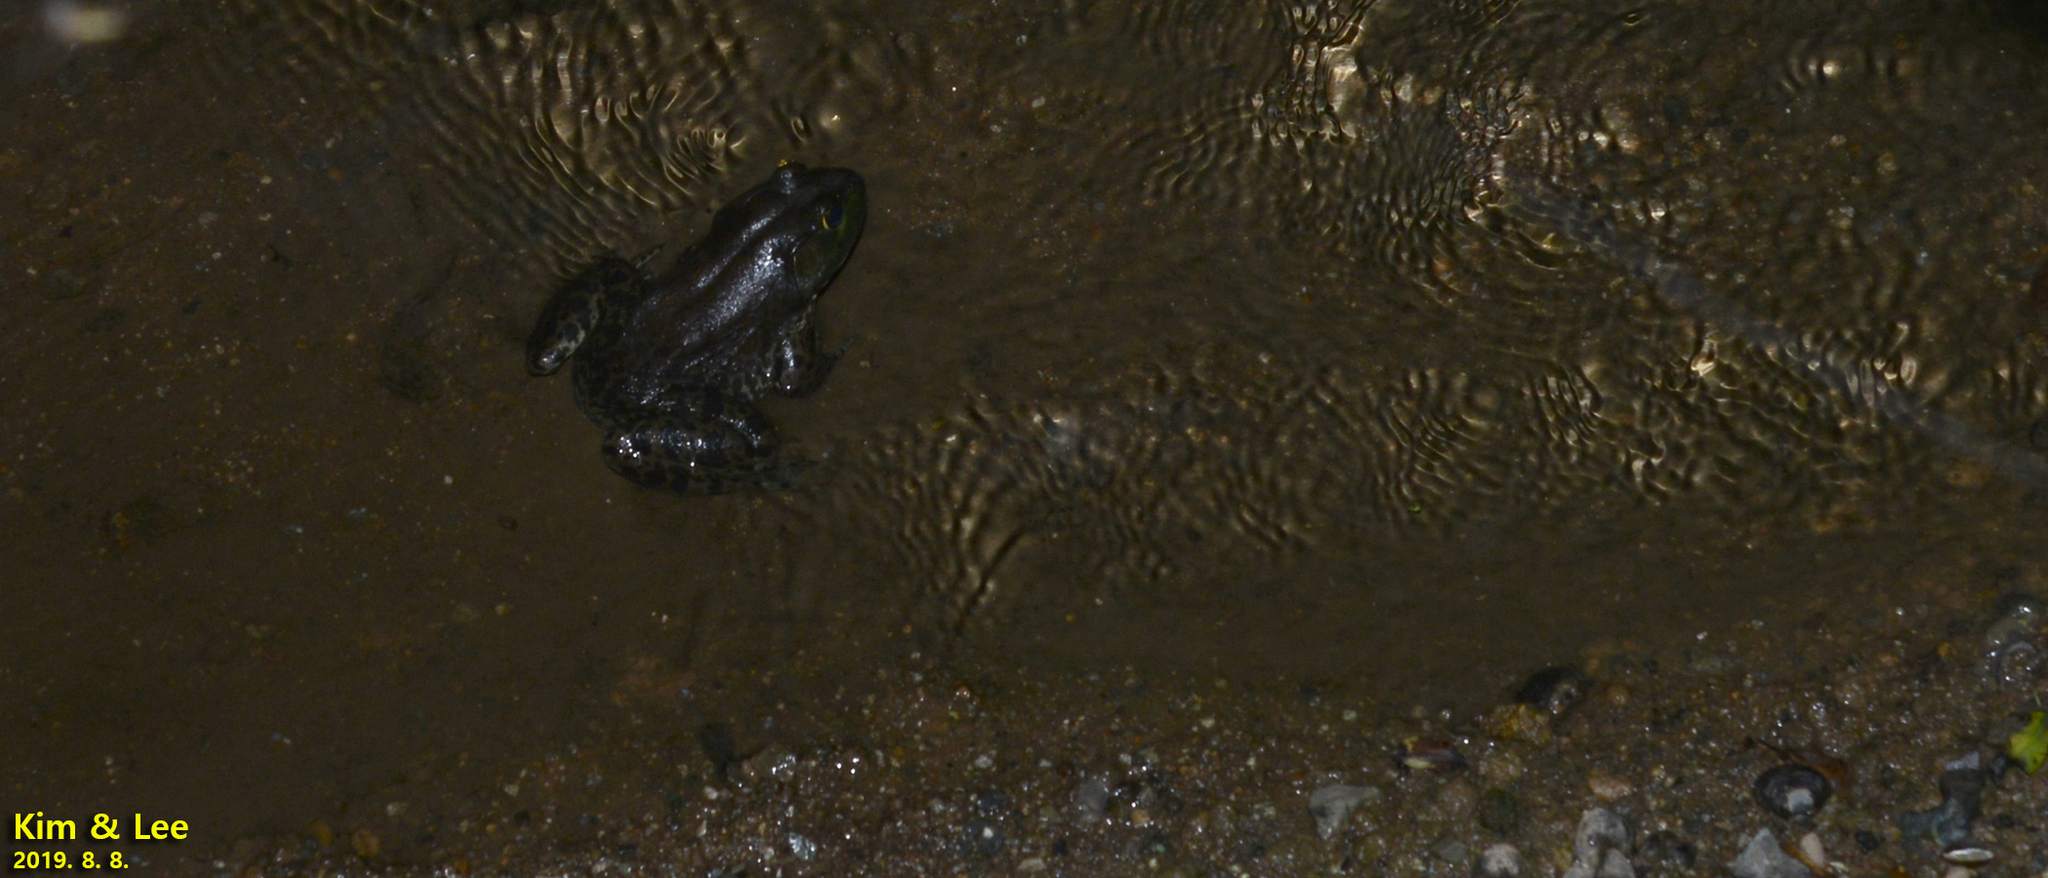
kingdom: Animalia
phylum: Chordata
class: Amphibia
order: Anura
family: Ranidae
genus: Lithobates
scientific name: Lithobates catesbeianus
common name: American bullfrog
